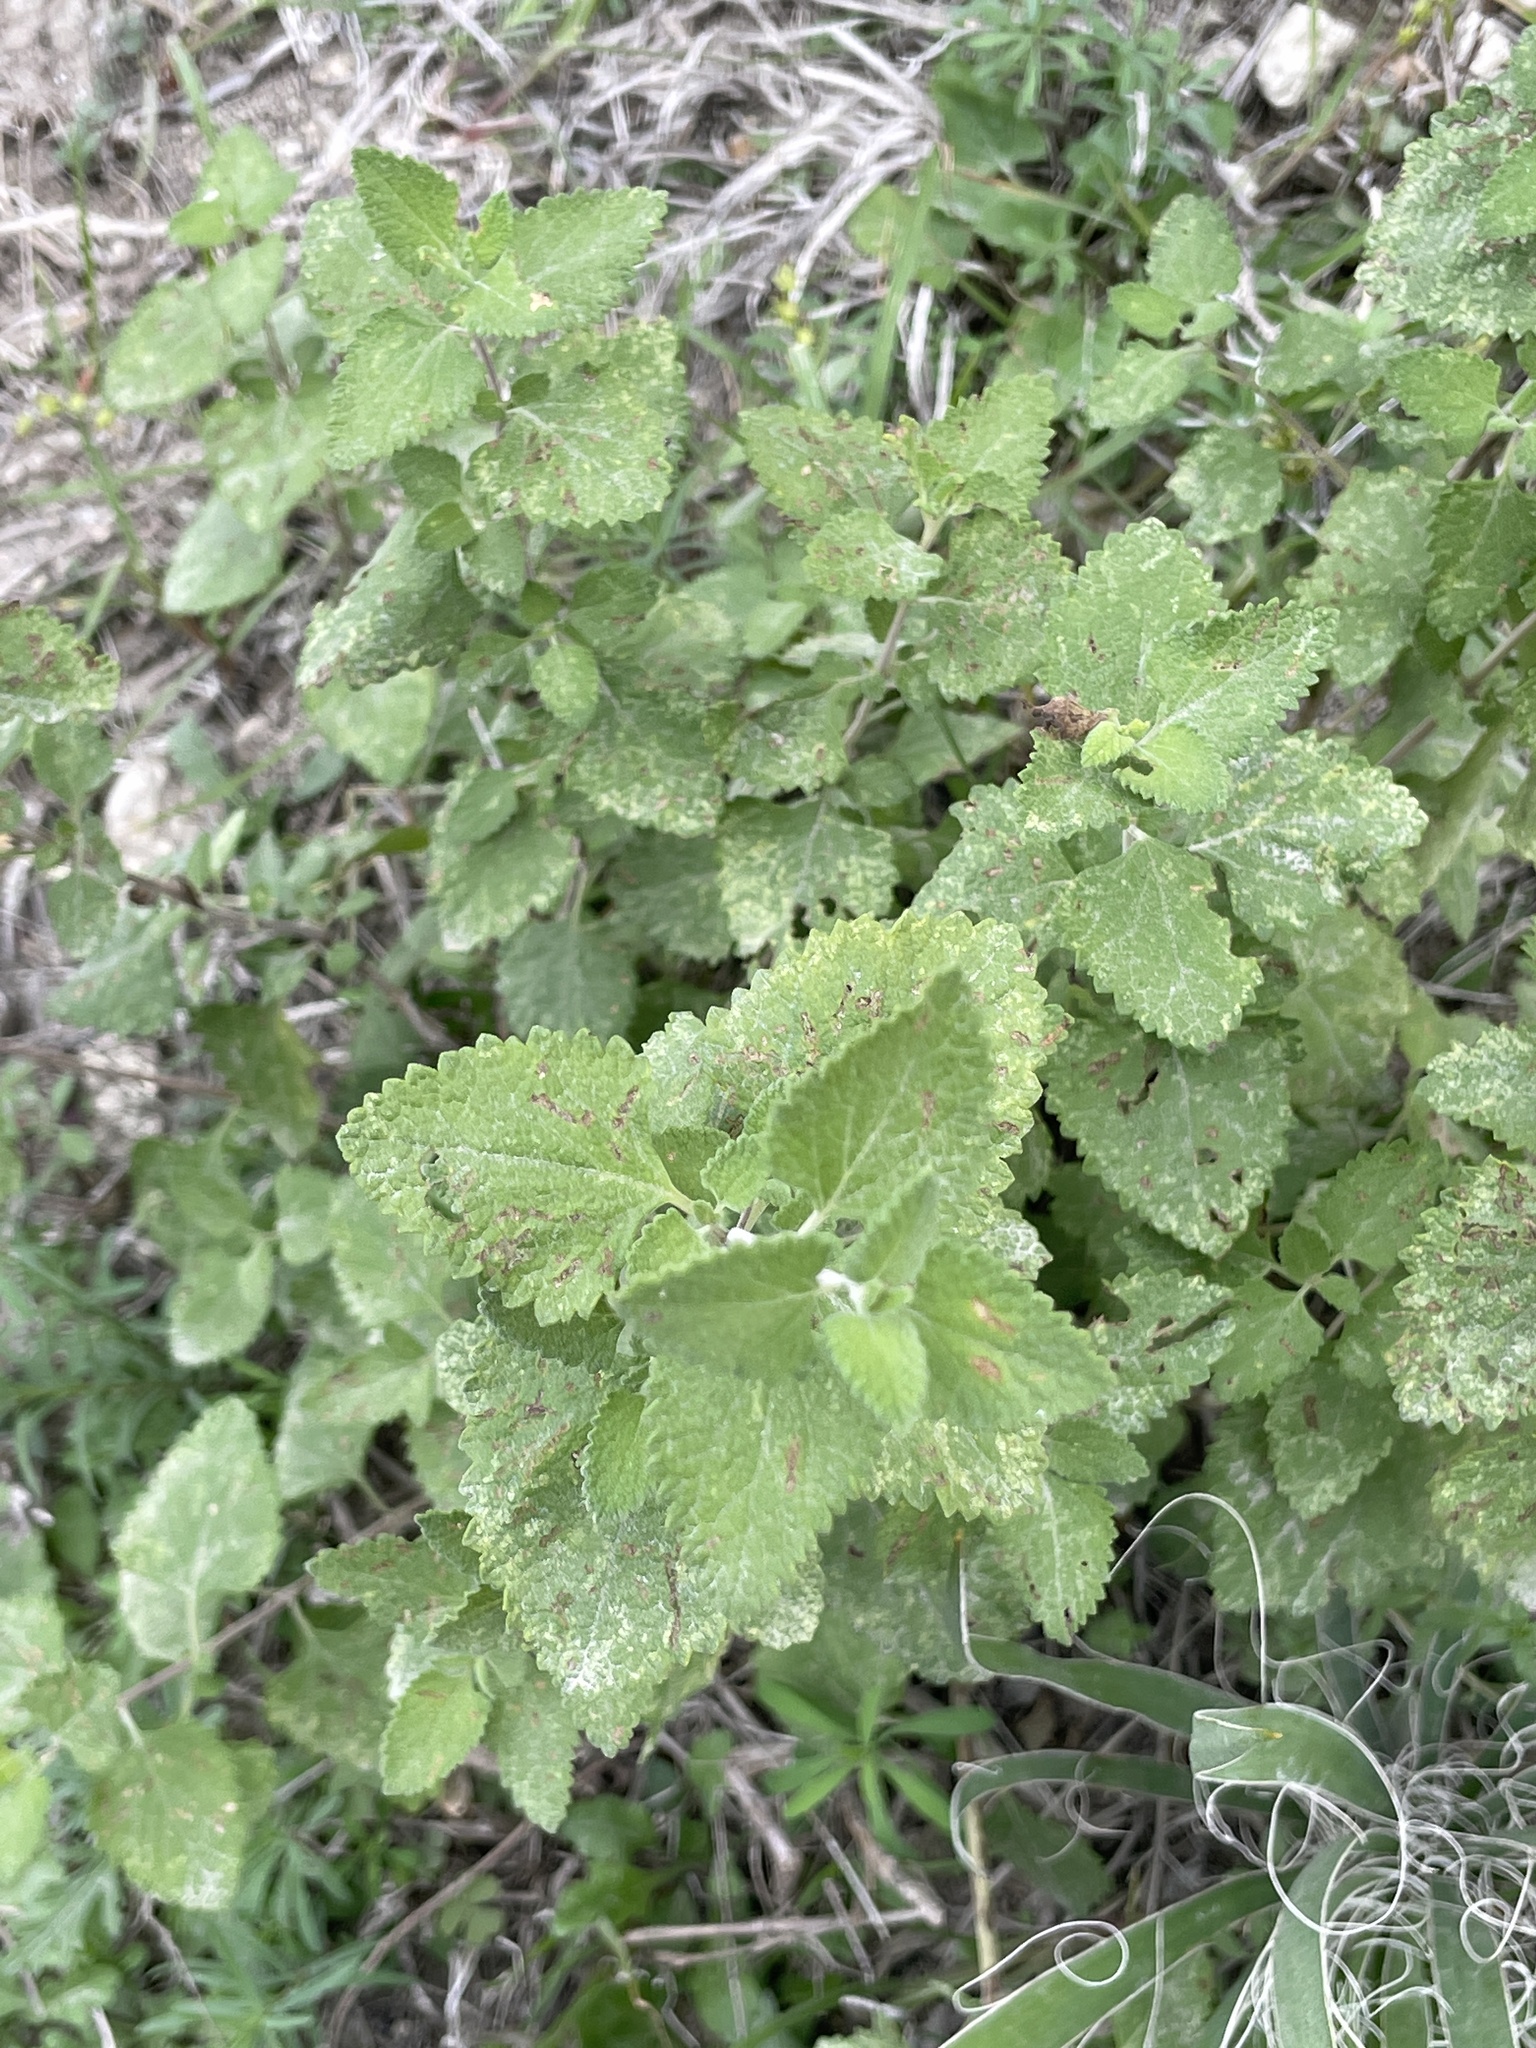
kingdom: Plantae
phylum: Tracheophyta
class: Magnoliopsida
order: Lamiales
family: Lamiaceae
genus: Salvia
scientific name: Salvia ballotiflora
